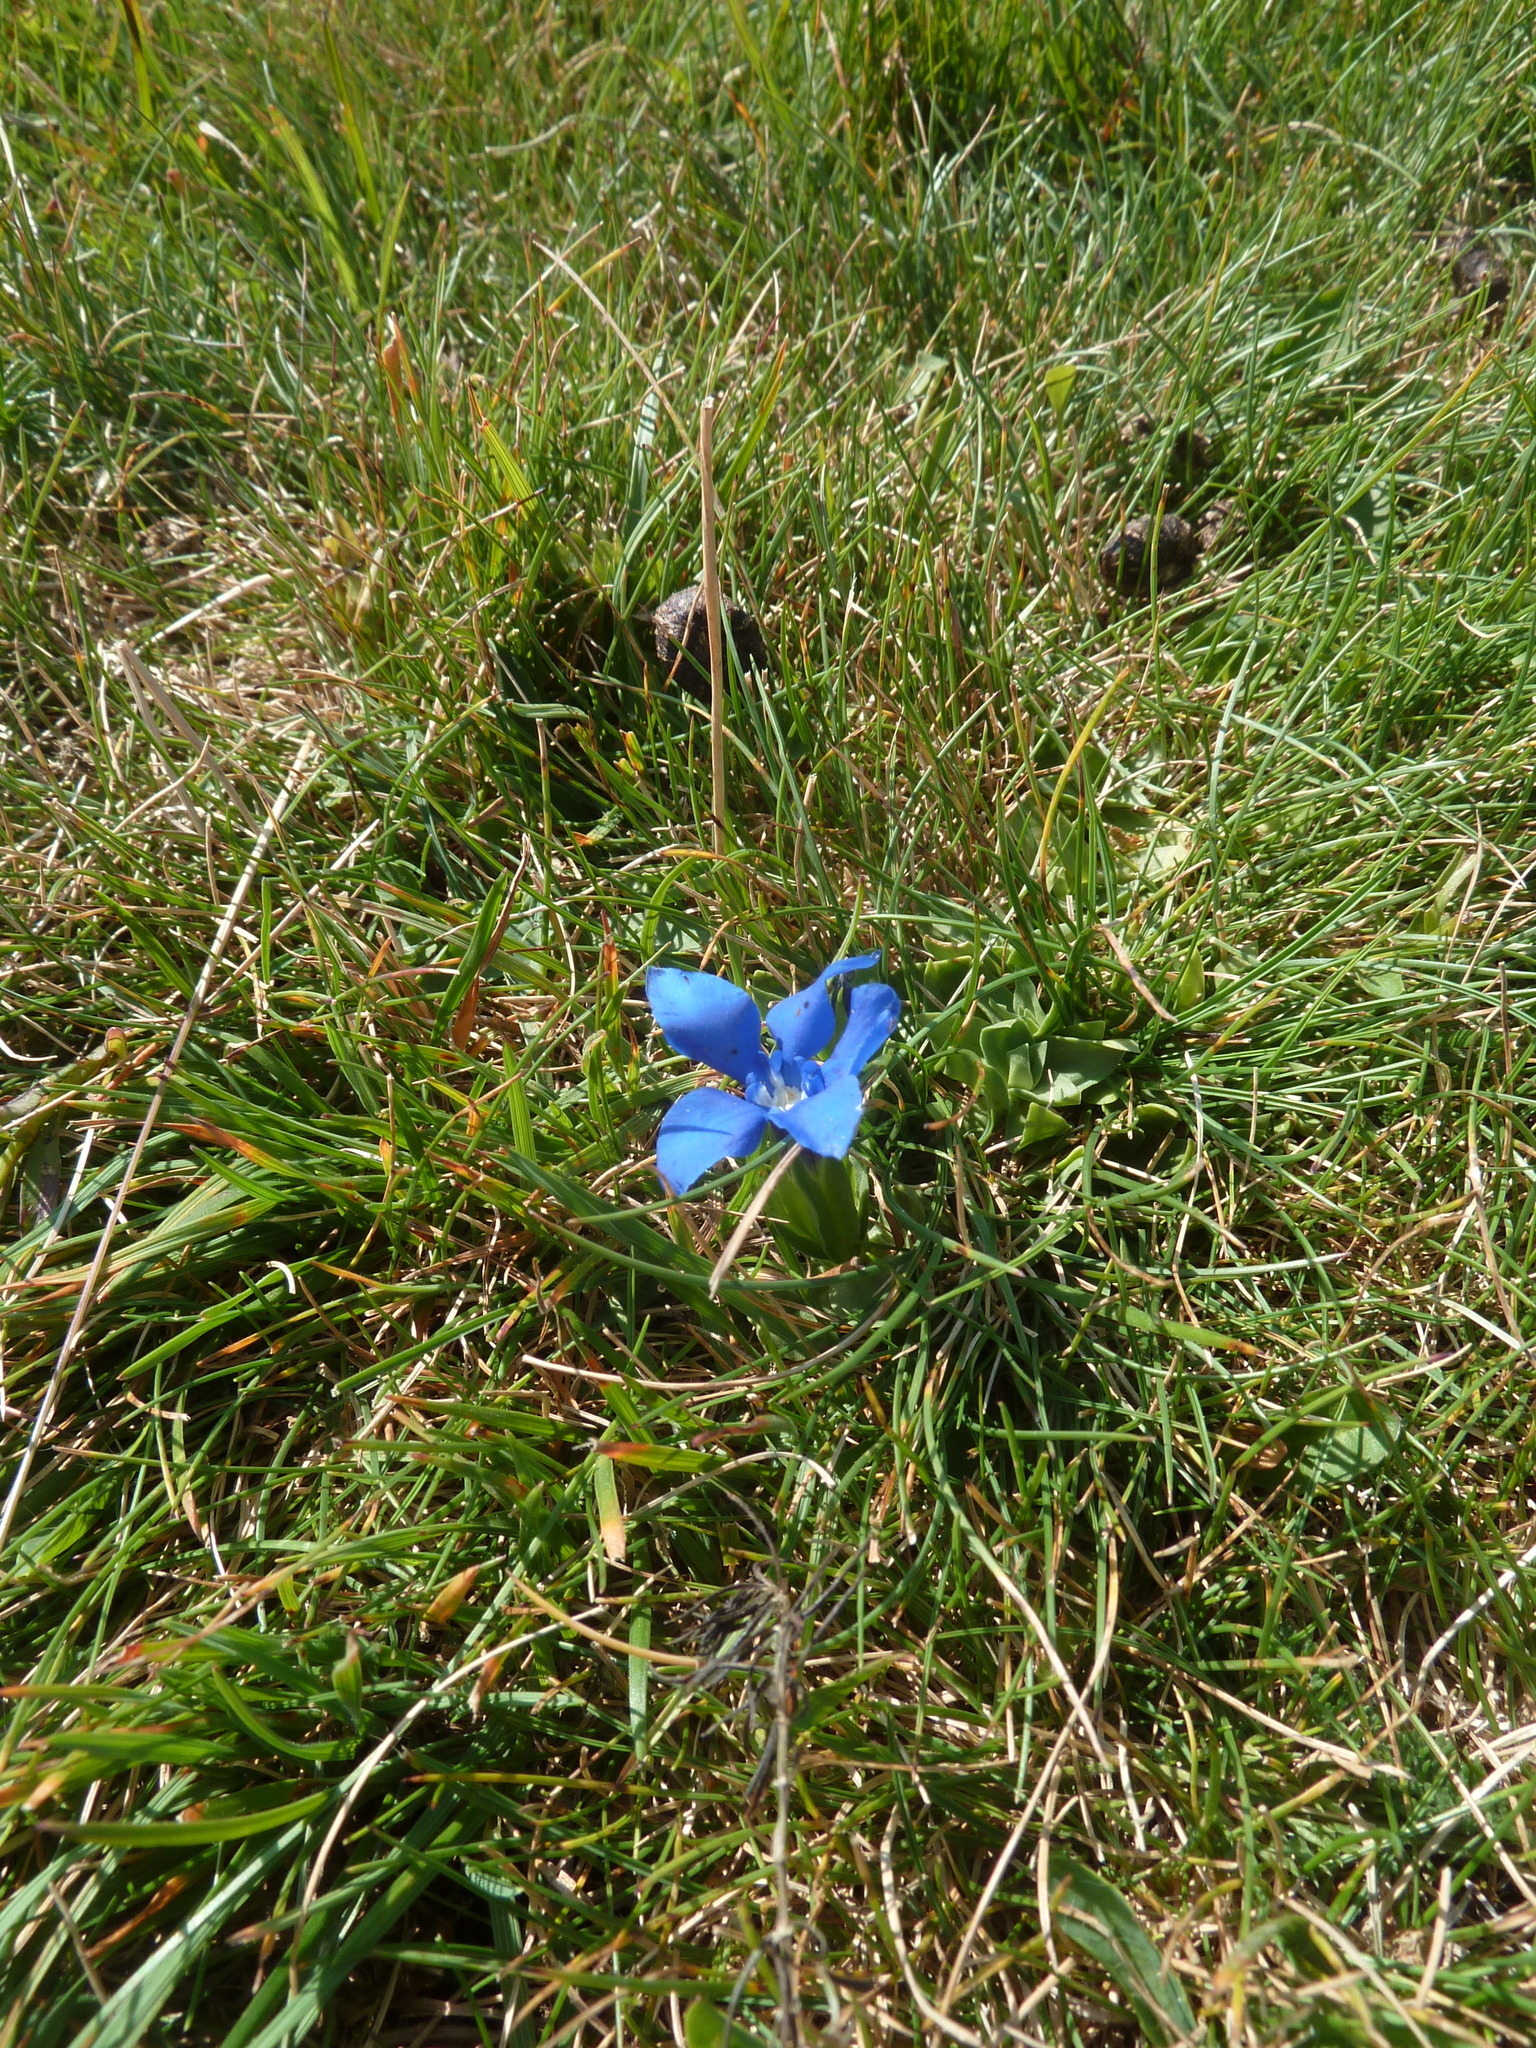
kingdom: Plantae
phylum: Tracheophyta
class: Magnoliopsida
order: Gentianales
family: Gentianaceae
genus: Gentiana
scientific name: Gentiana verna
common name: Spring gentian
